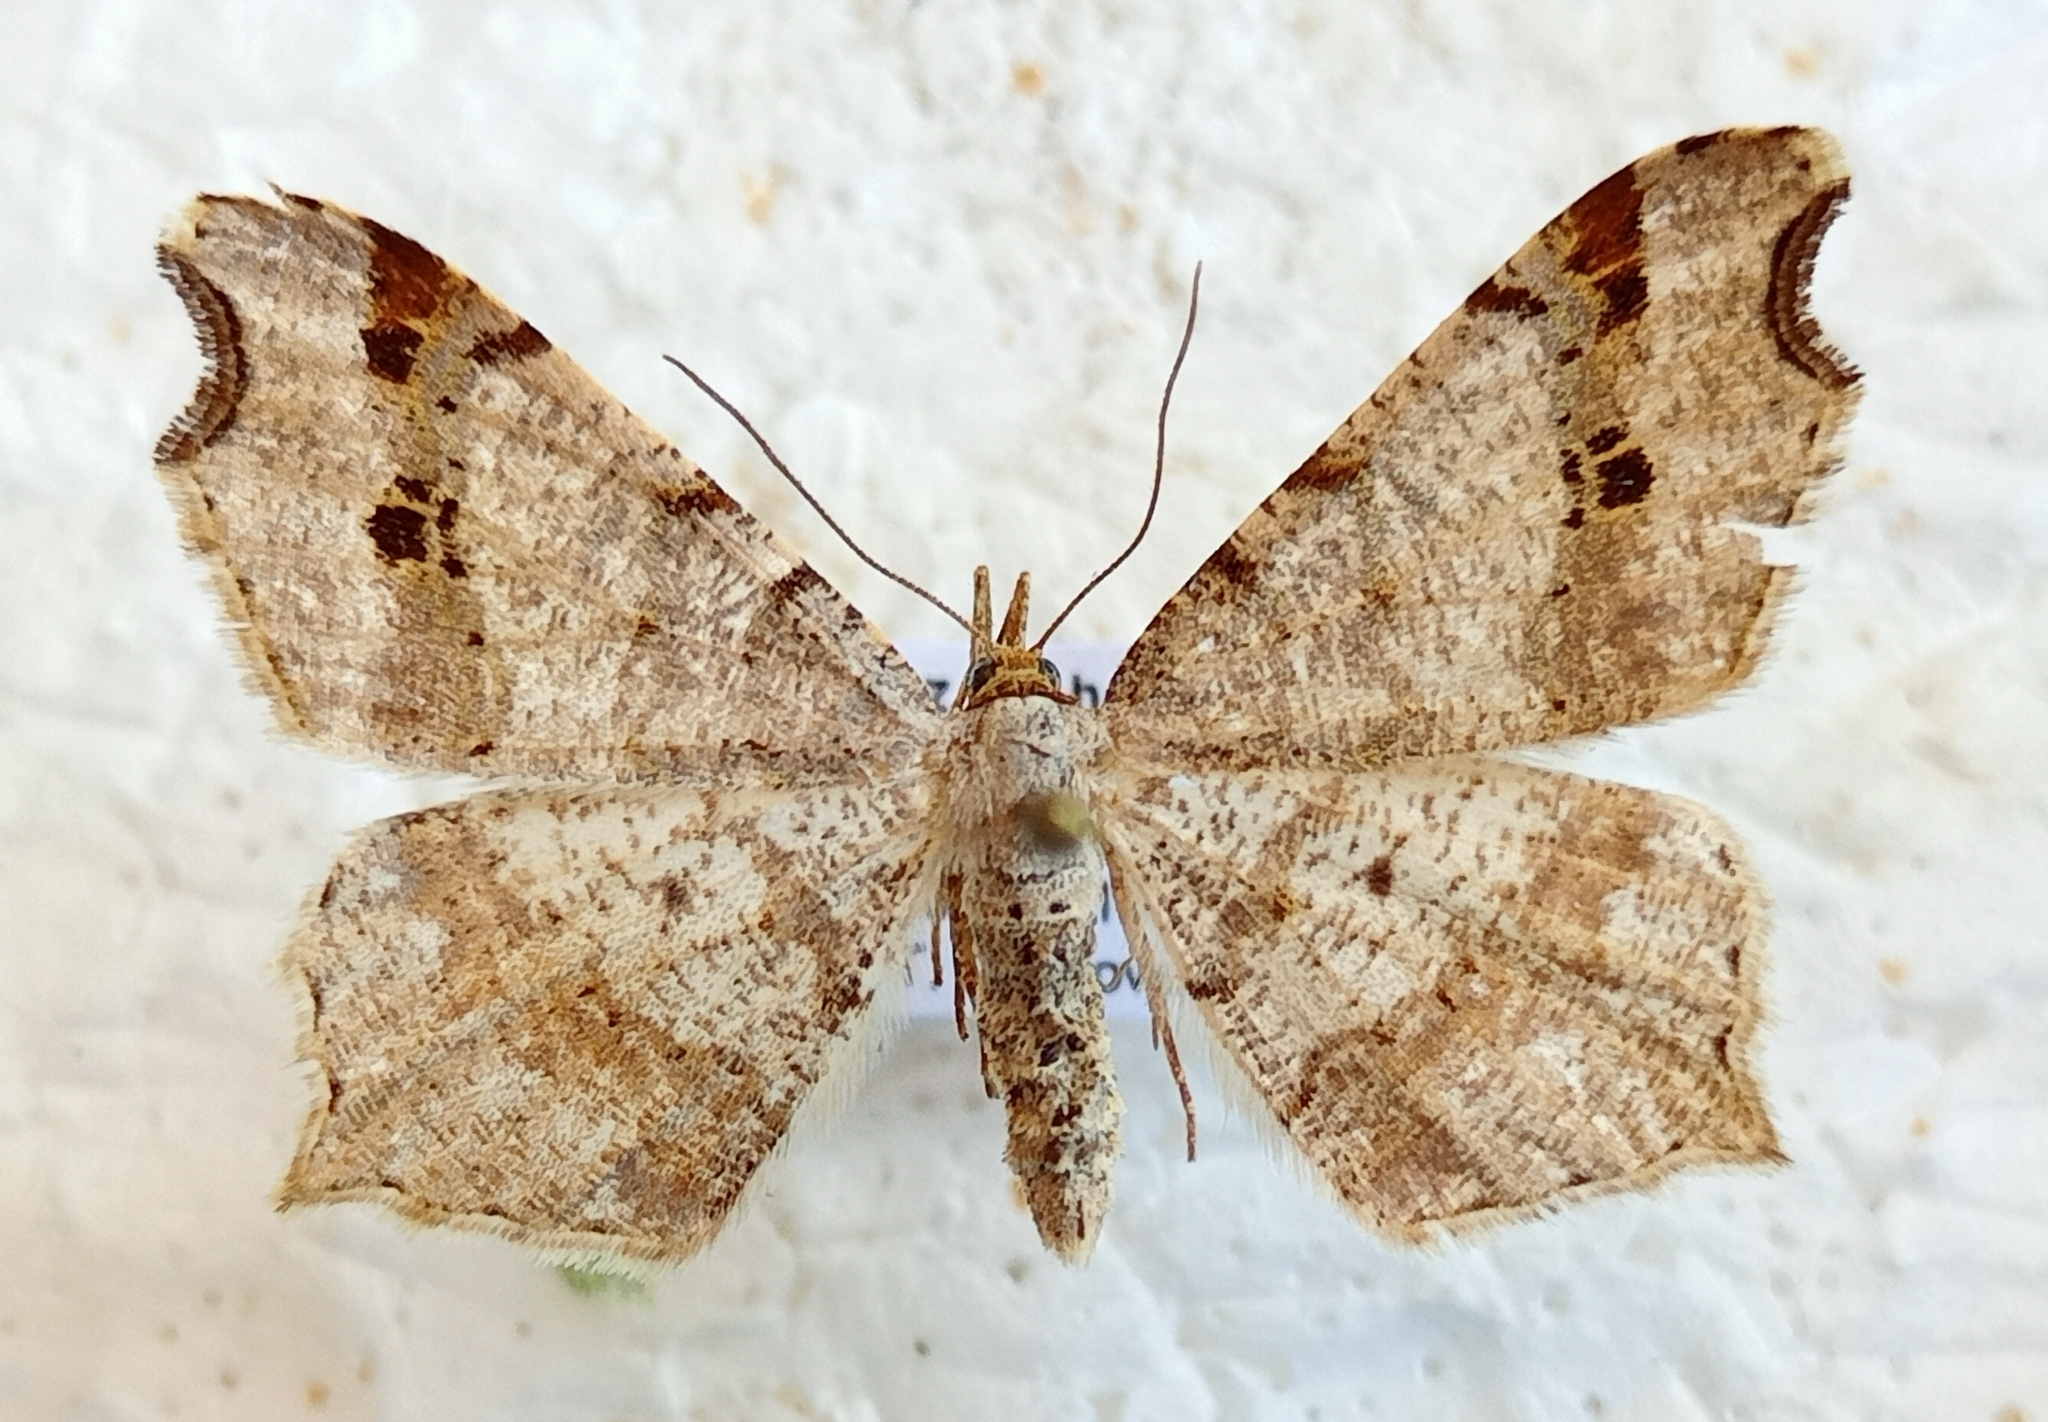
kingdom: Animalia
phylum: Arthropoda
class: Insecta
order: Lepidoptera
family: Geometridae
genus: Macaria
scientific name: Macaria alternata
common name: Sharp-angled peacock
